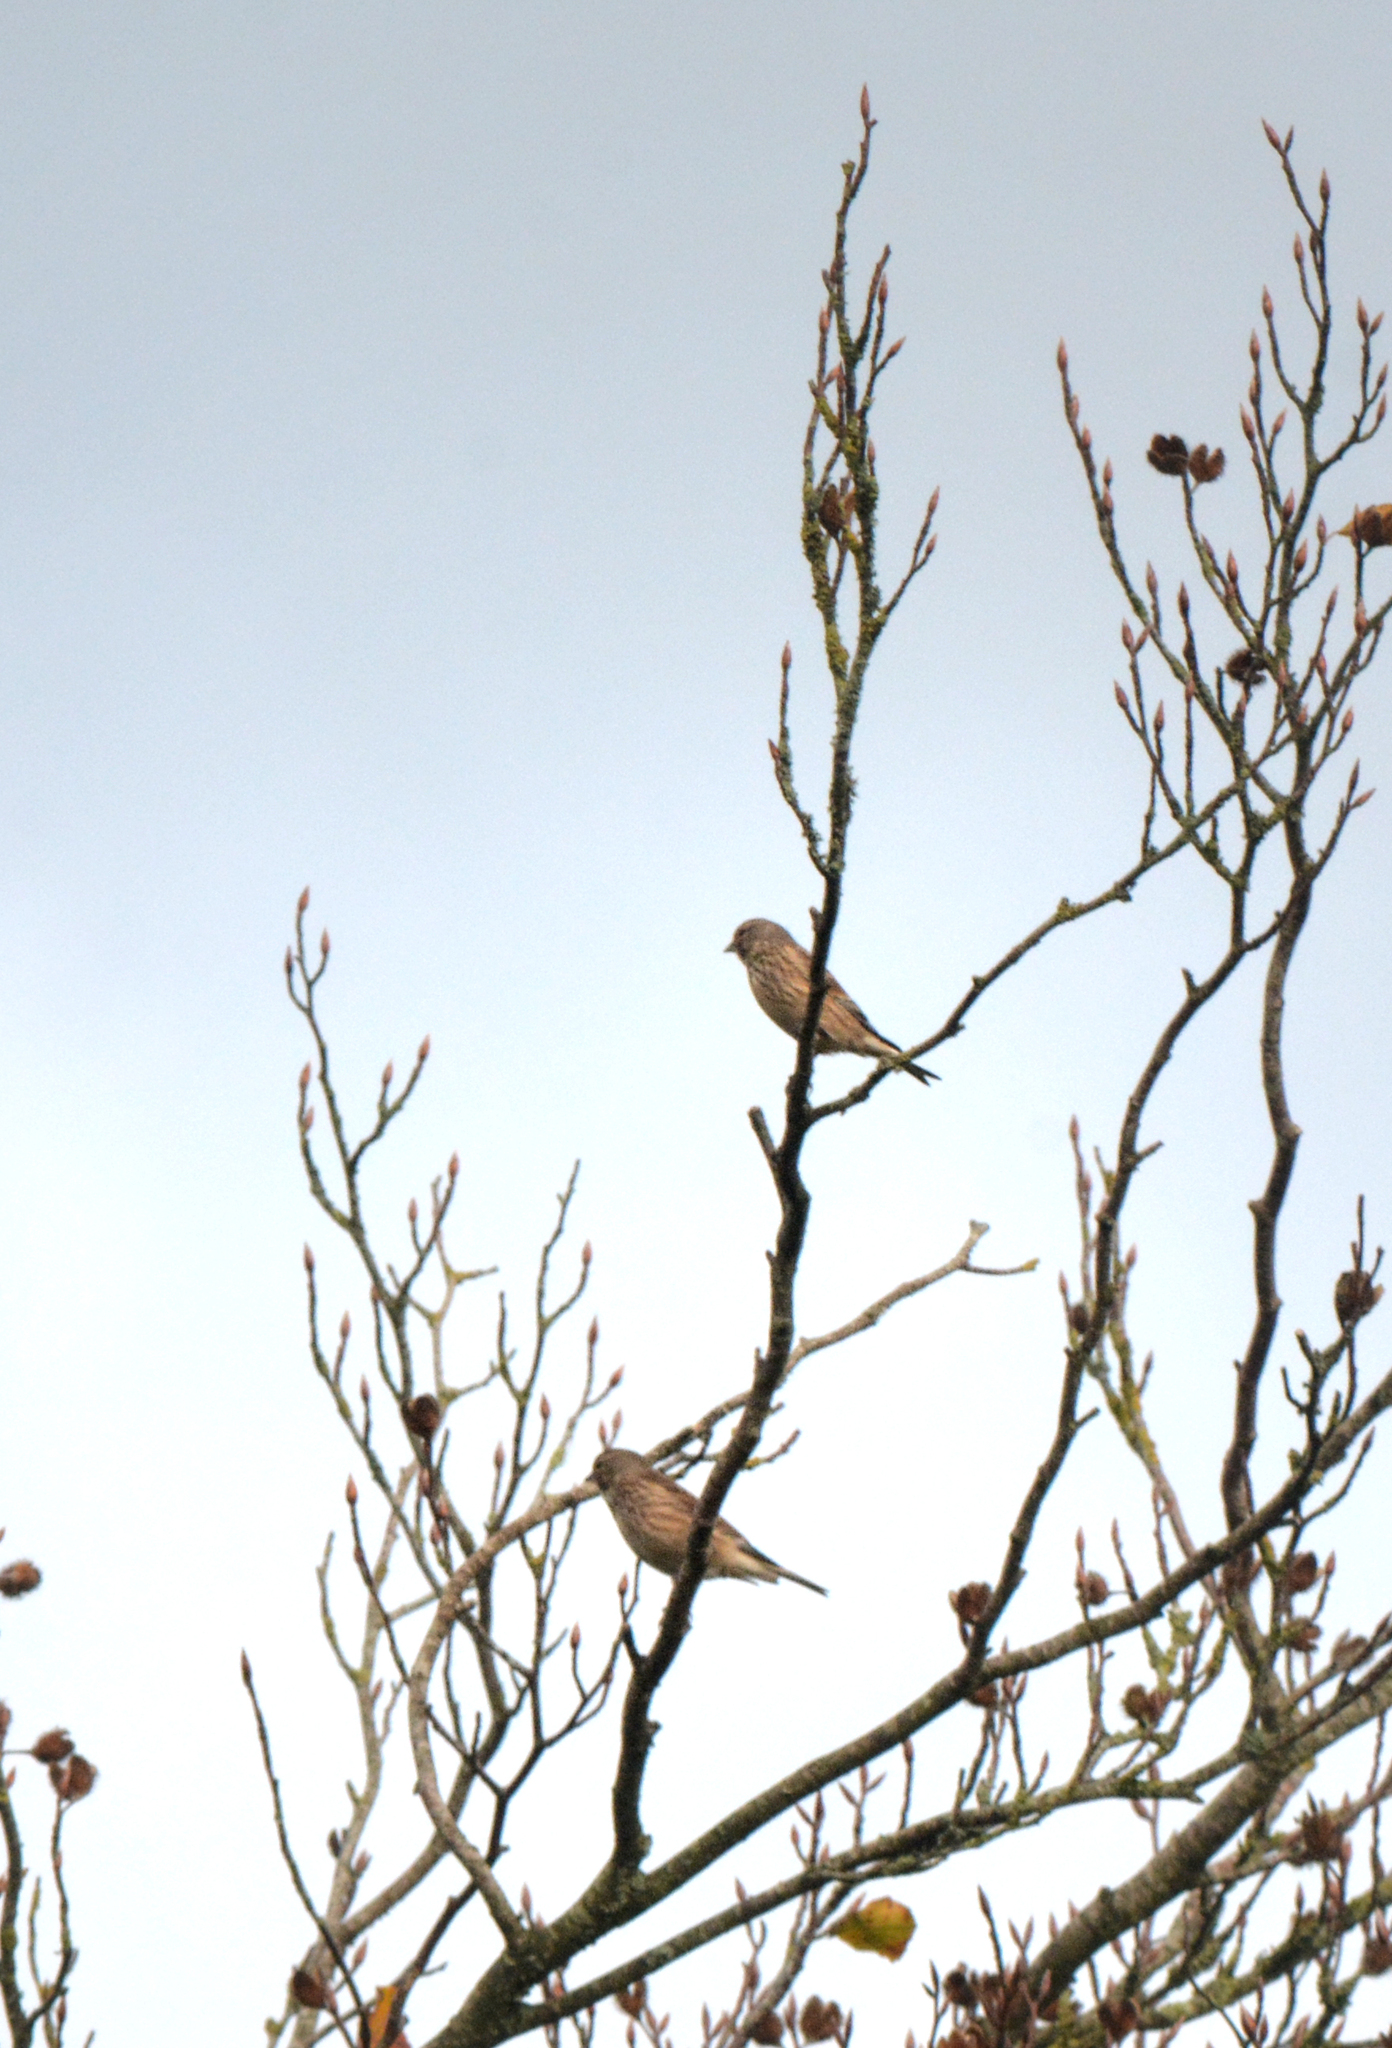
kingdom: Animalia
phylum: Chordata
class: Aves
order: Passeriformes
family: Fringillidae
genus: Linaria
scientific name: Linaria cannabina
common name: Common linnet
